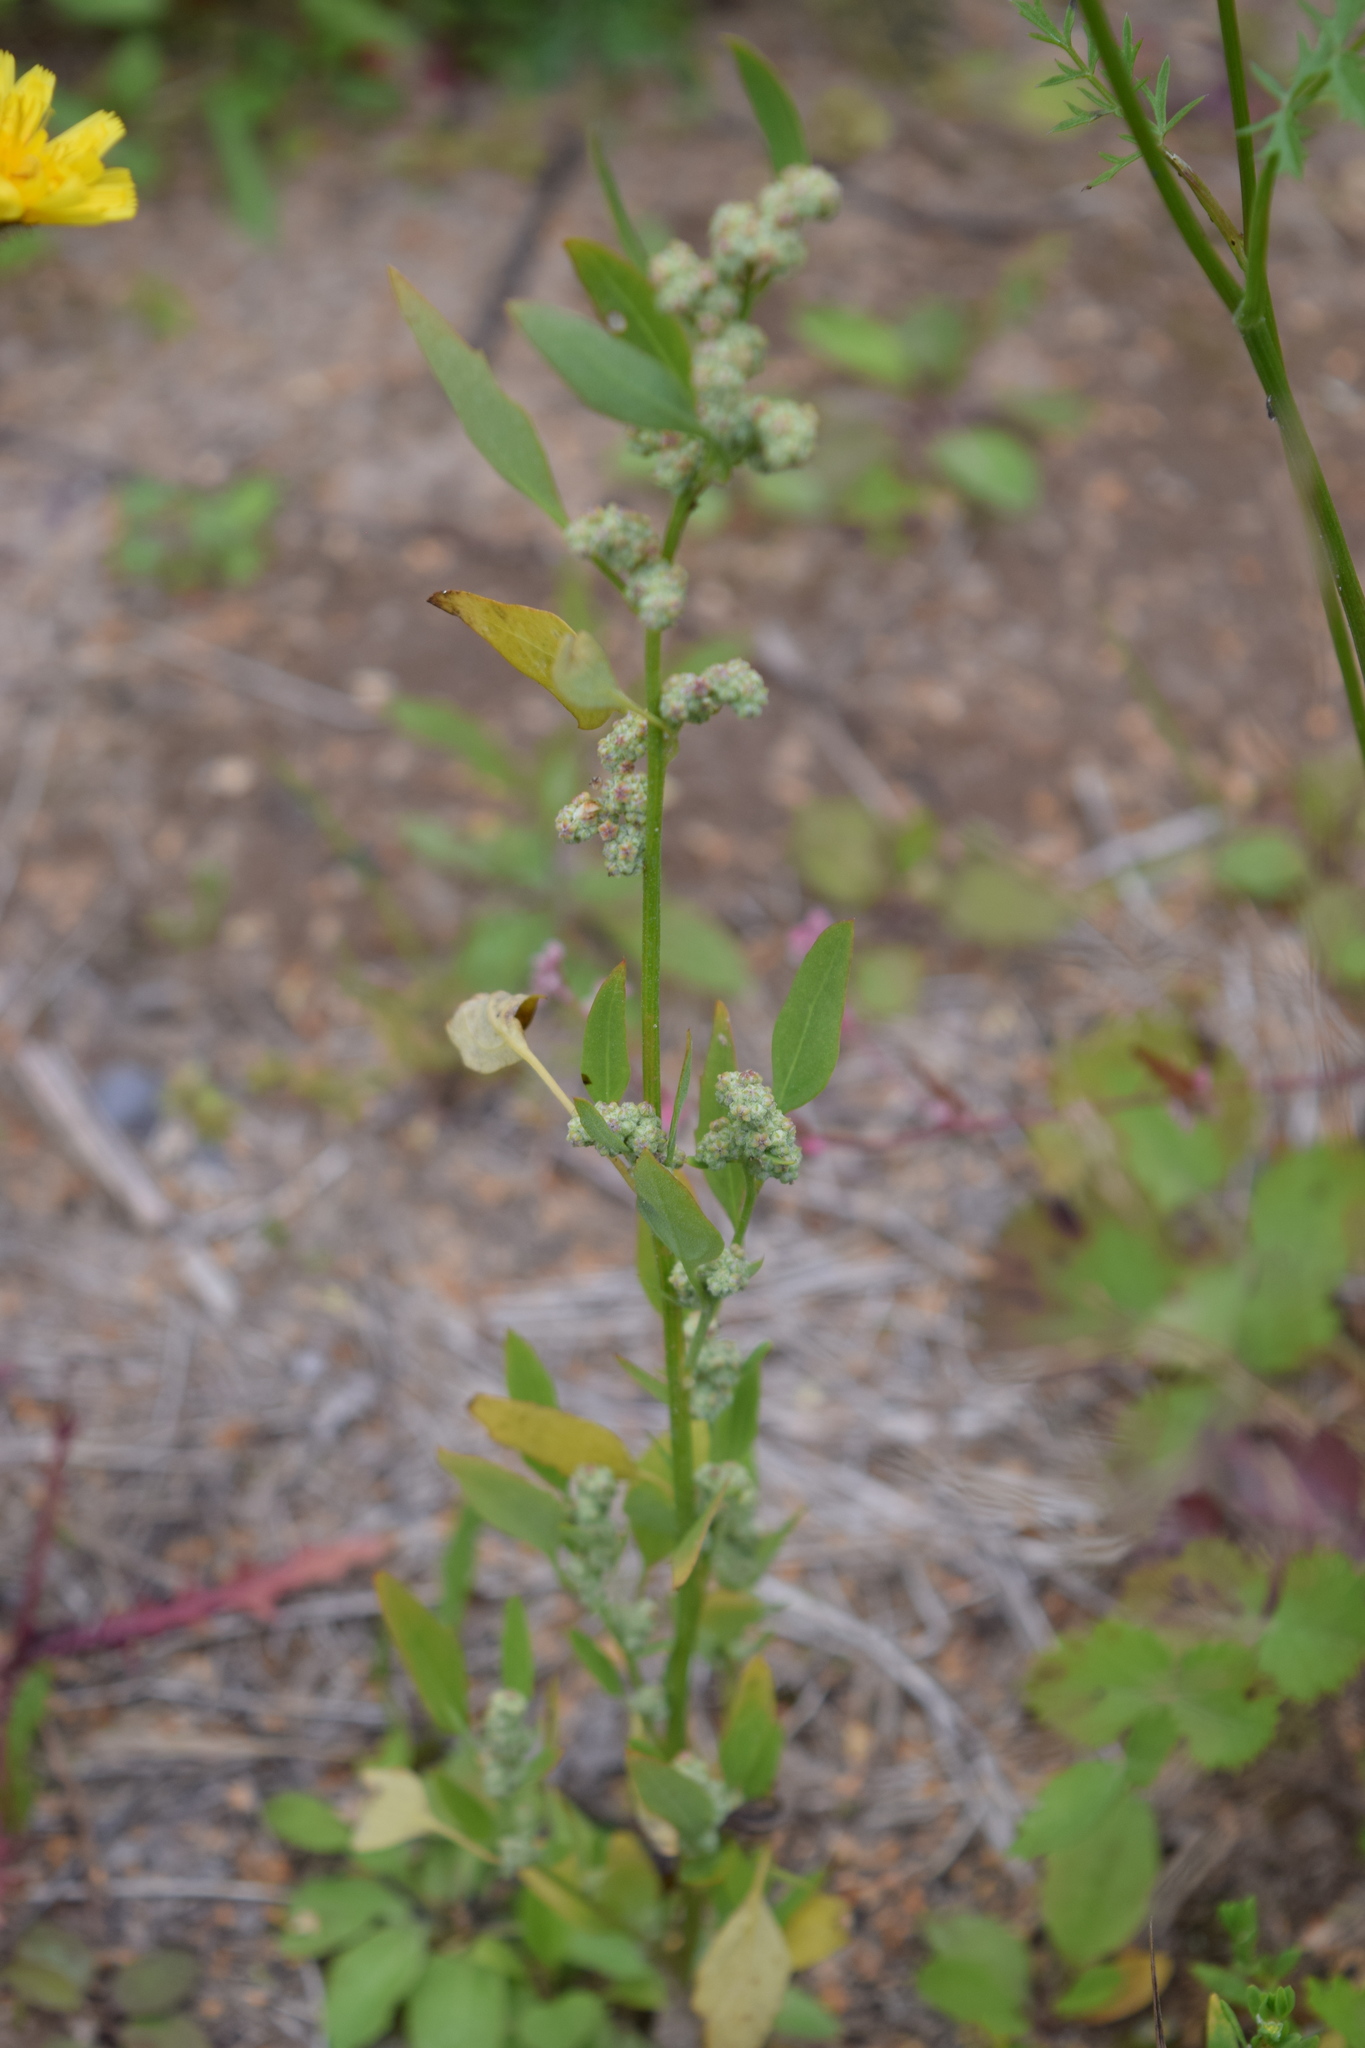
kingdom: Plantae
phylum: Tracheophyta
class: Magnoliopsida
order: Caryophyllales
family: Amaranthaceae
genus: Chenopodium
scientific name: Chenopodium album
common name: Fat-hen
